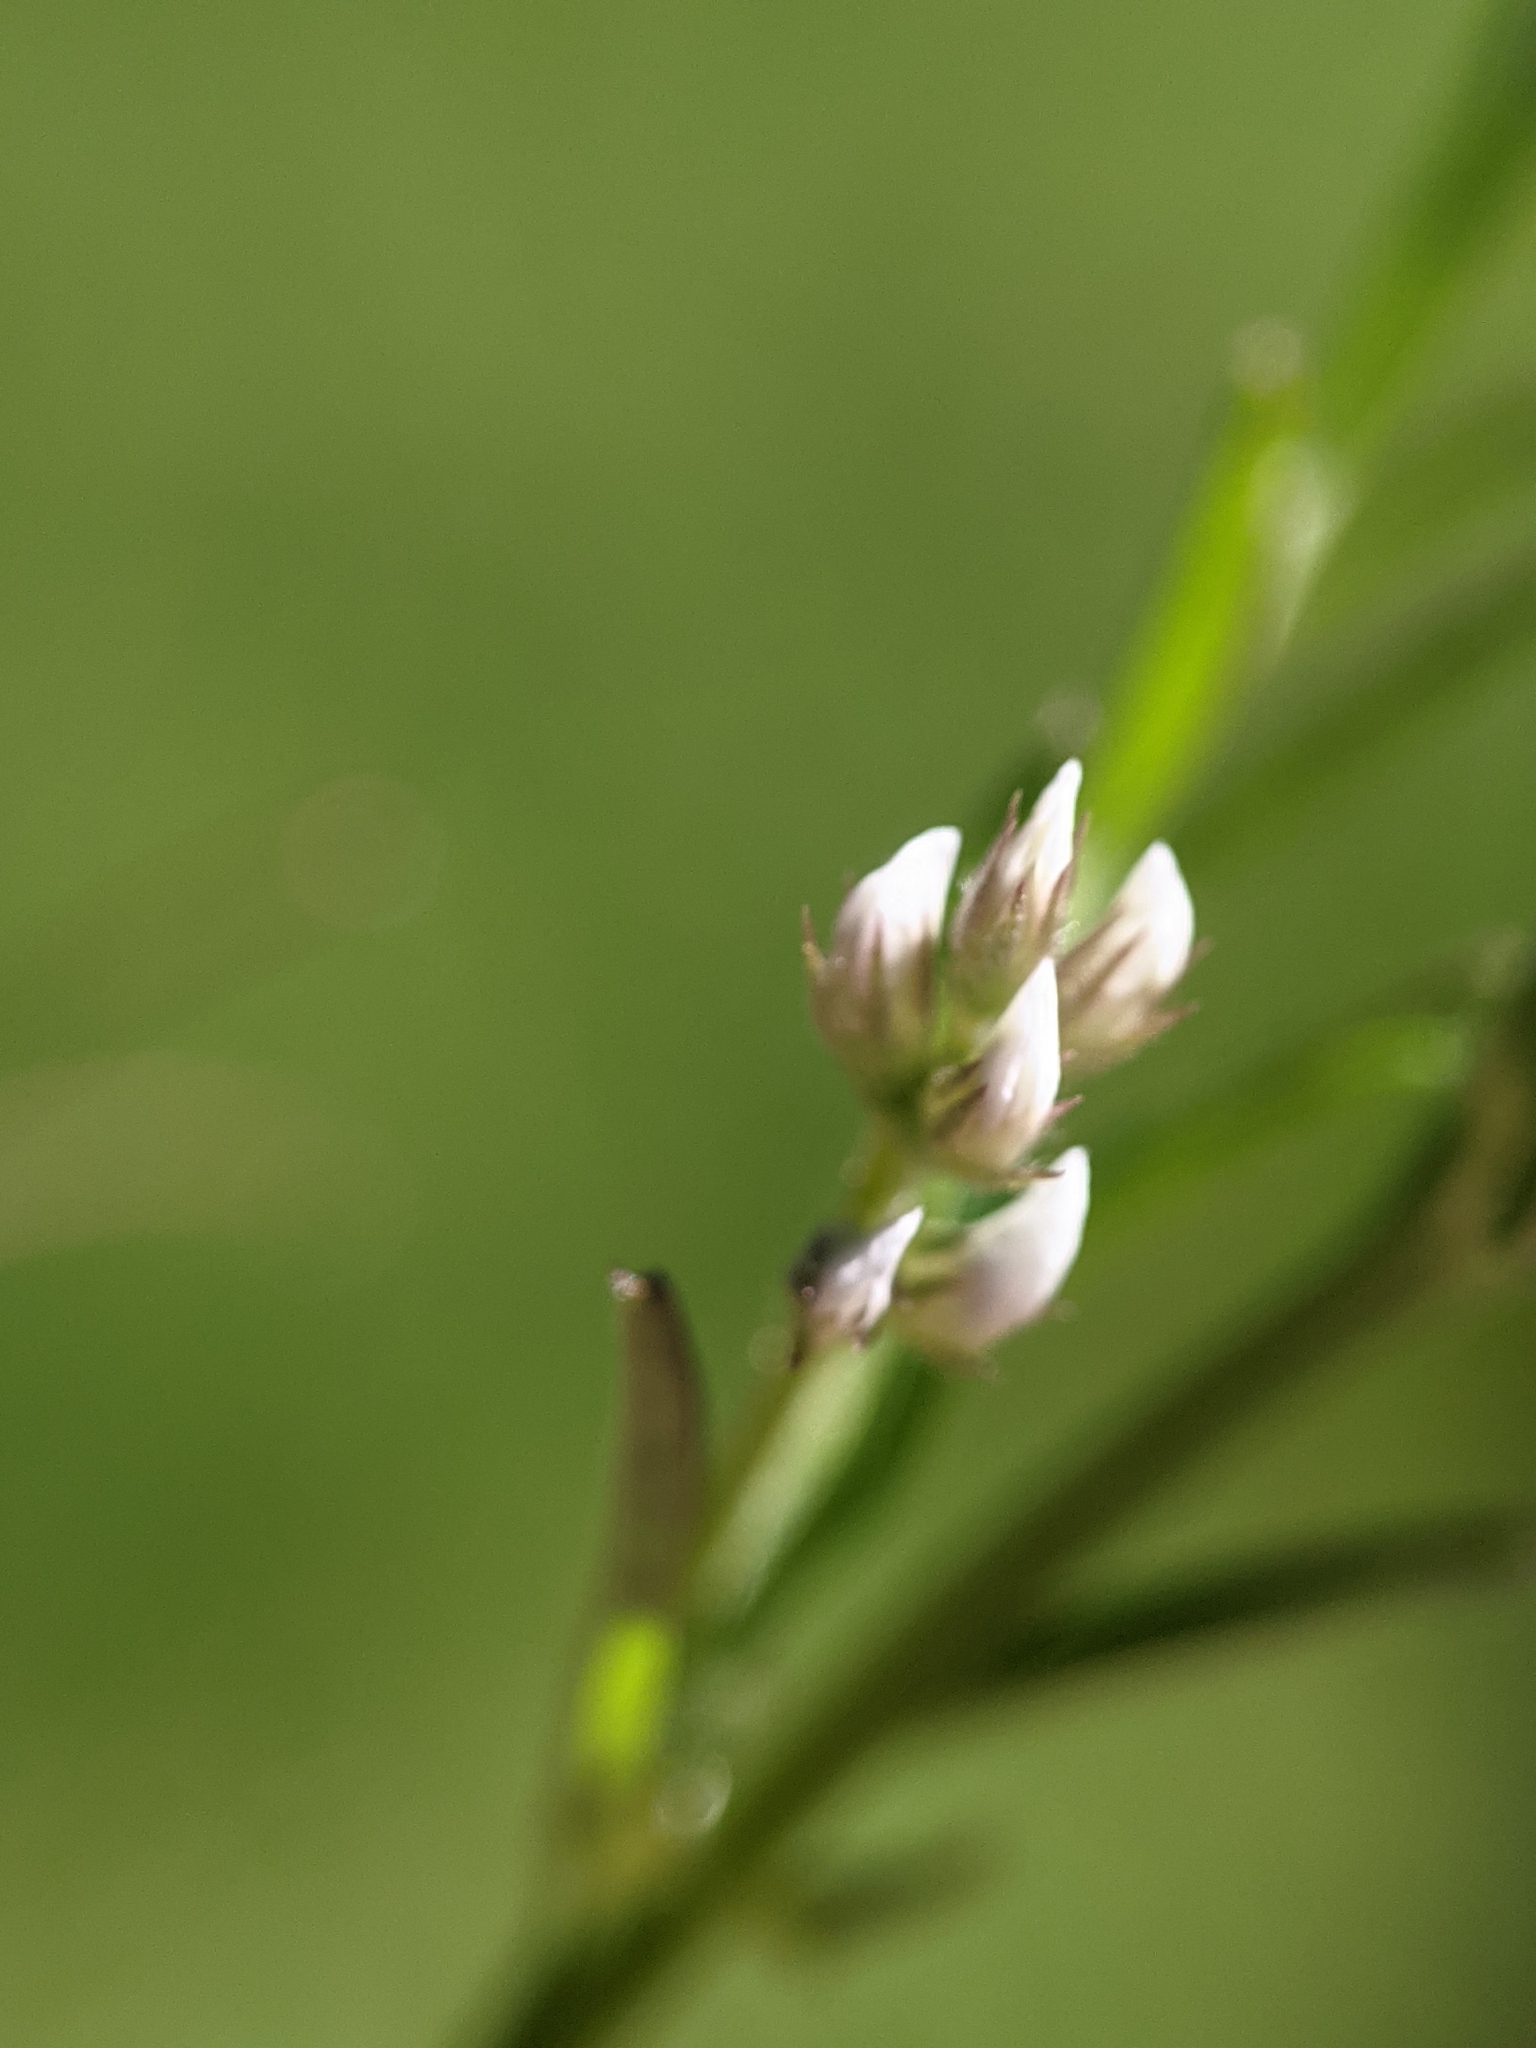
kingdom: Plantae
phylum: Tracheophyta
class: Magnoliopsida
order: Fabales
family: Fabaceae
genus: Vicia
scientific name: Vicia hirsuta
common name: Tiny vetch
